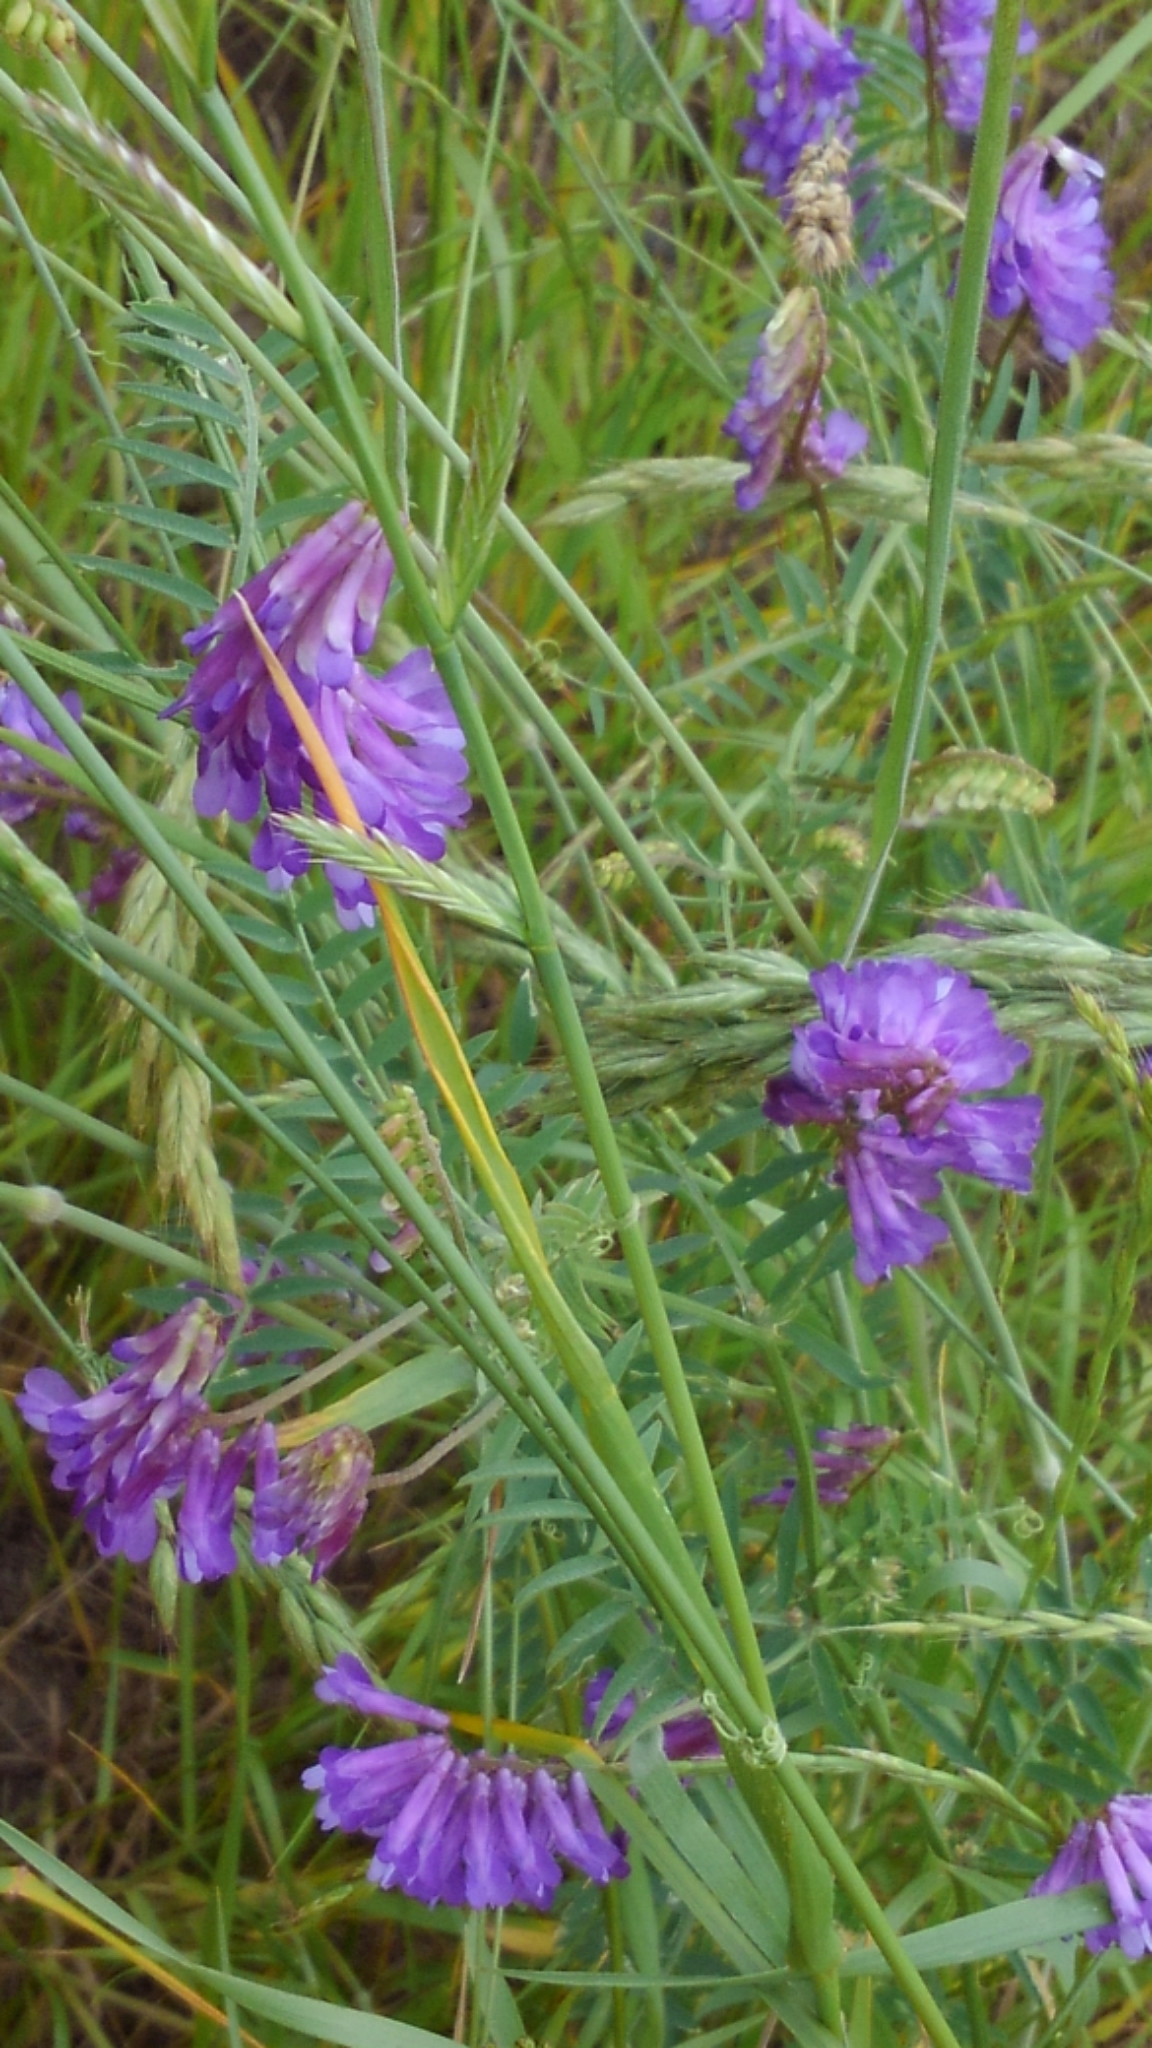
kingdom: Plantae
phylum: Tracheophyta
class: Magnoliopsida
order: Fabales
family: Fabaceae
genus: Vicia
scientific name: Vicia villosa
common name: Fodder vetch
